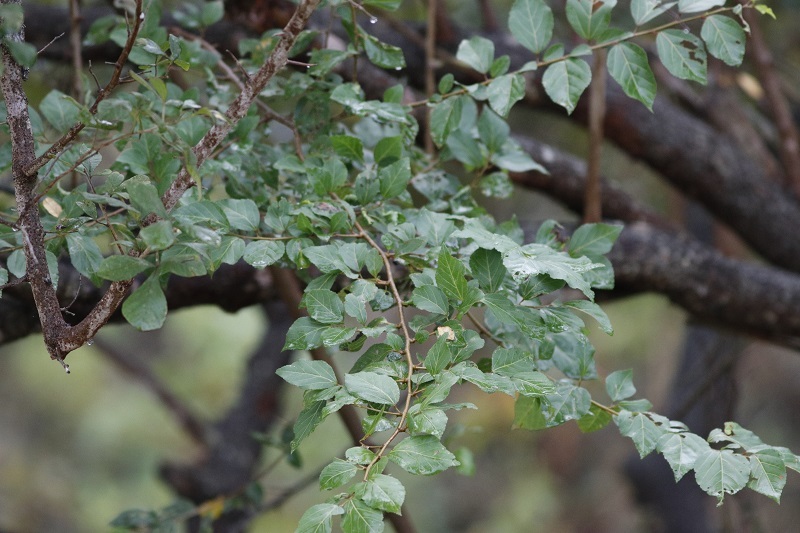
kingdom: Plantae
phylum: Tracheophyta
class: Magnoliopsida
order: Malvales
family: Malvaceae
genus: Grewia
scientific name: Grewia occidentalis
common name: Crossberry
